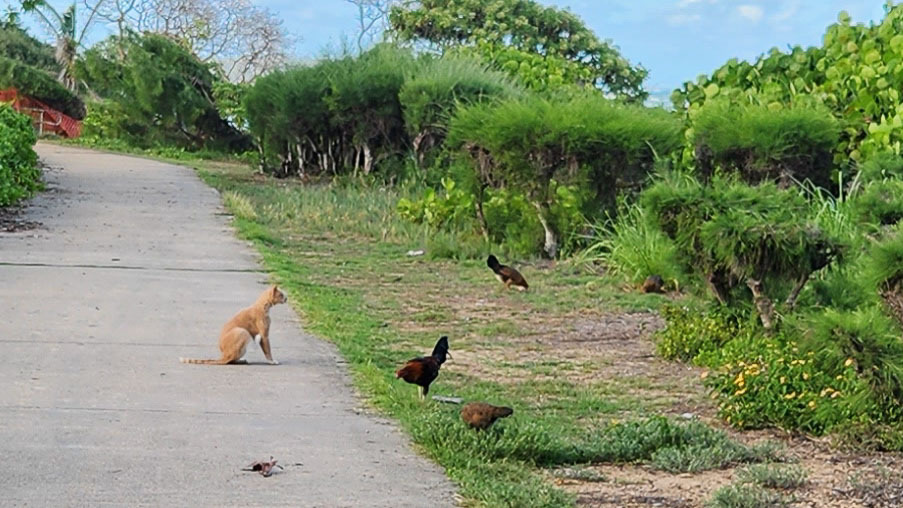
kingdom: Animalia
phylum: Chordata
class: Aves
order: Galliformes
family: Phasianidae
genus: Gallus
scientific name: Gallus gallus
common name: Red junglefowl
